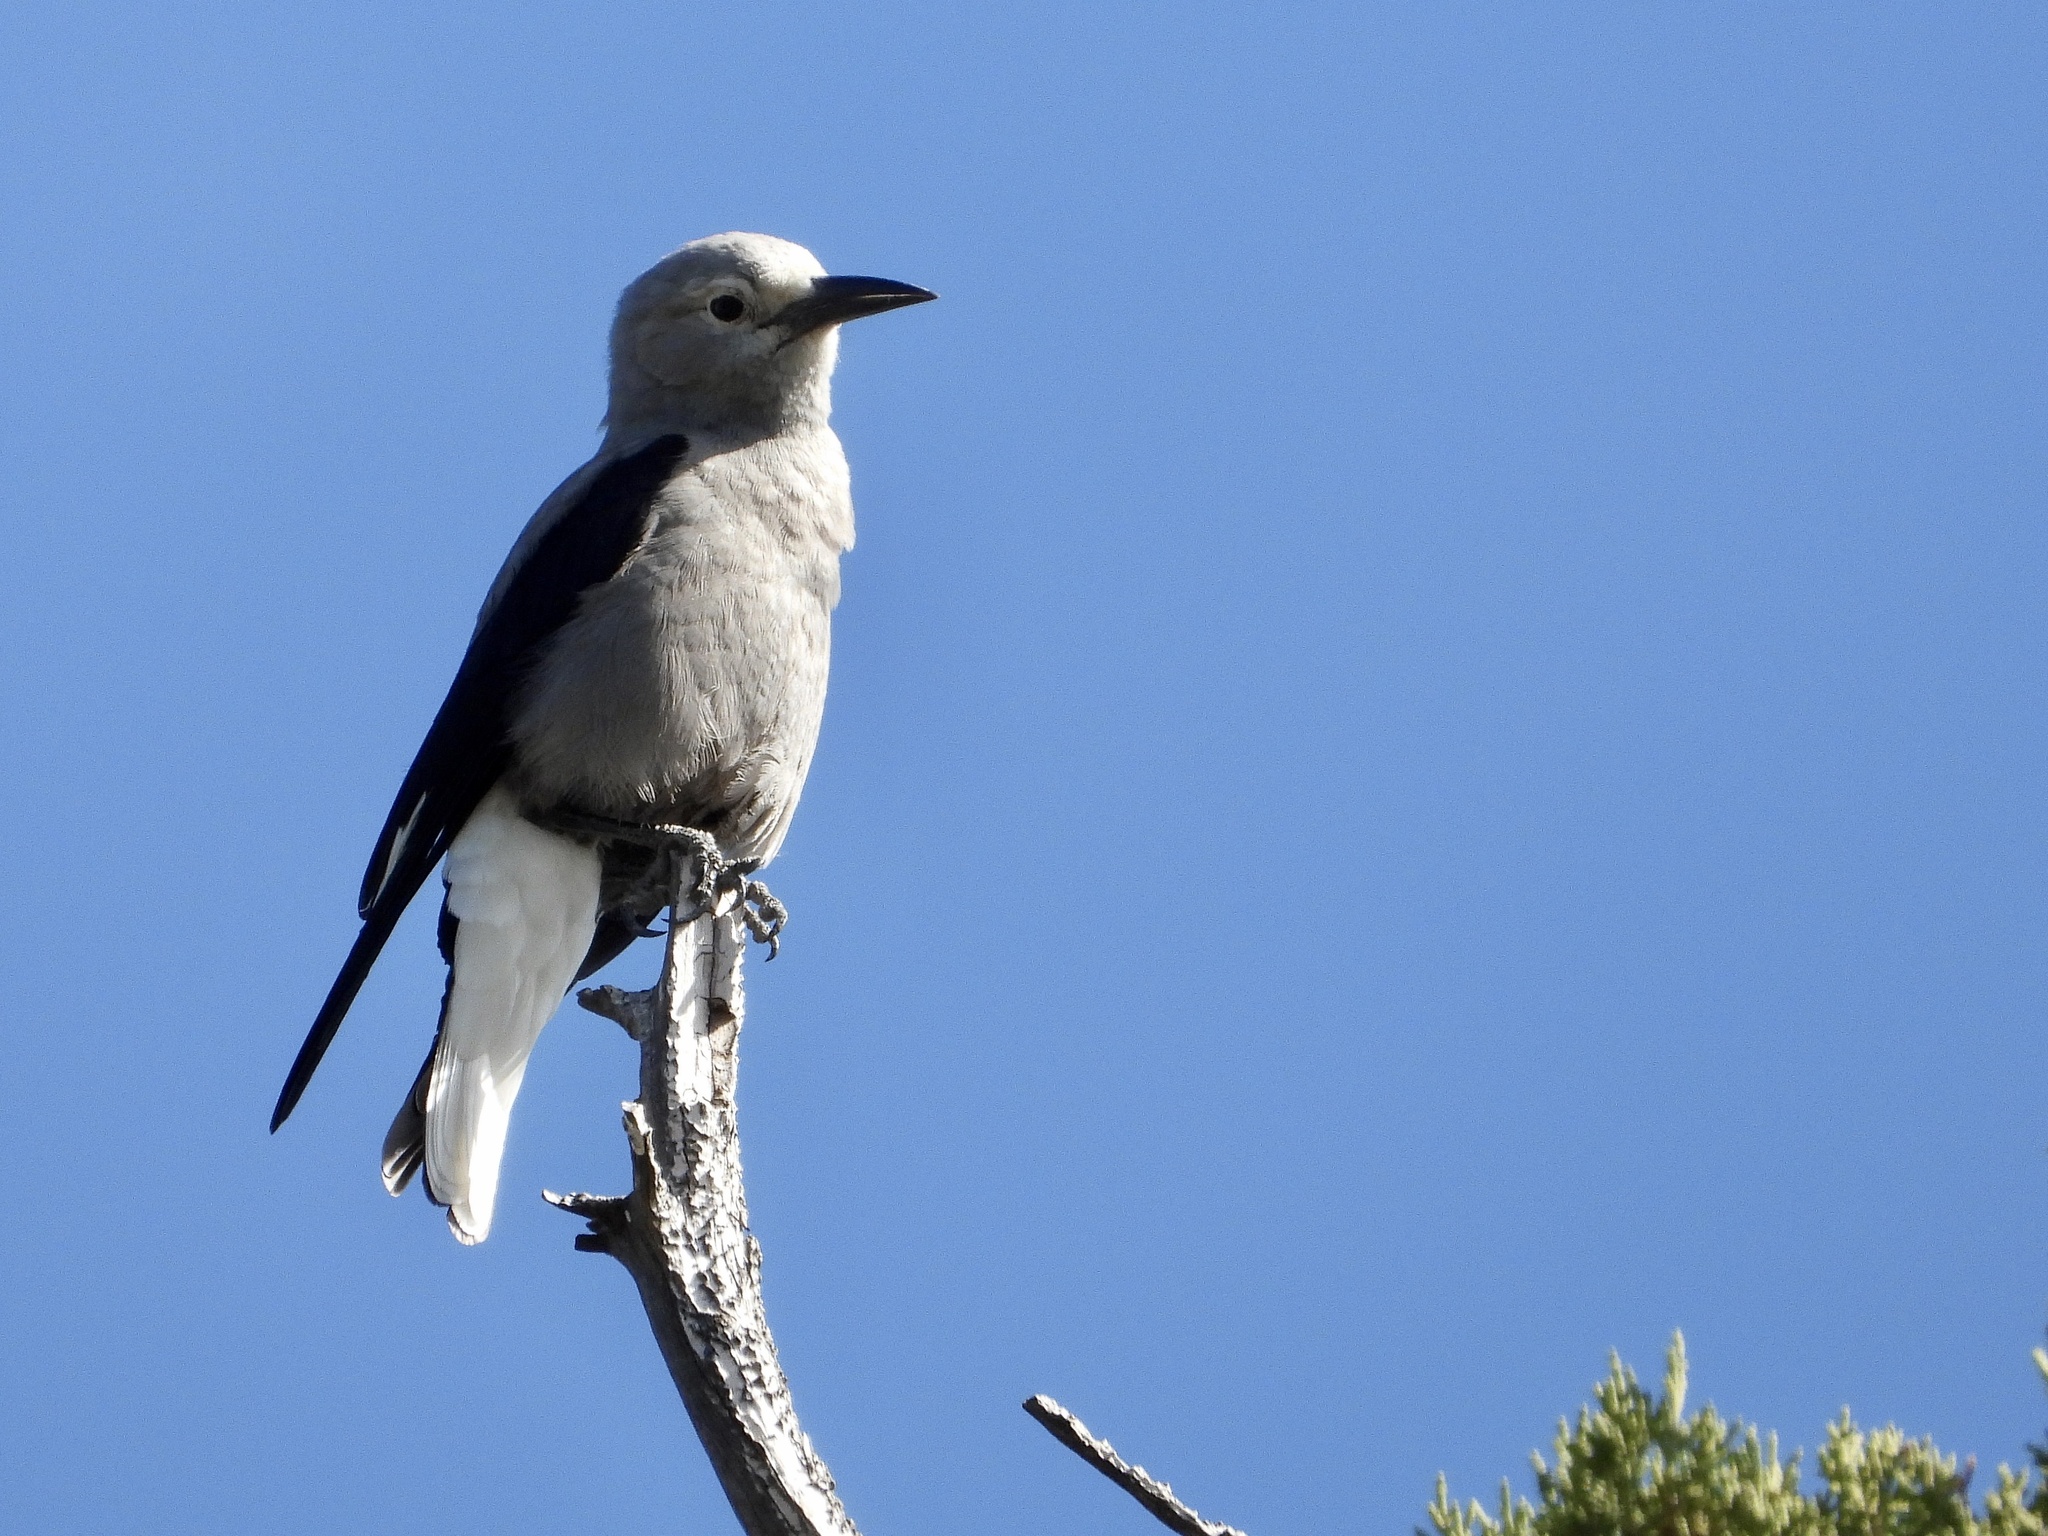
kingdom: Animalia
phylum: Chordata
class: Aves
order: Passeriformes
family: Corvidae
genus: Nucifraga
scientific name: Nucifraga columbiana
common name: Clark's nutcracker
